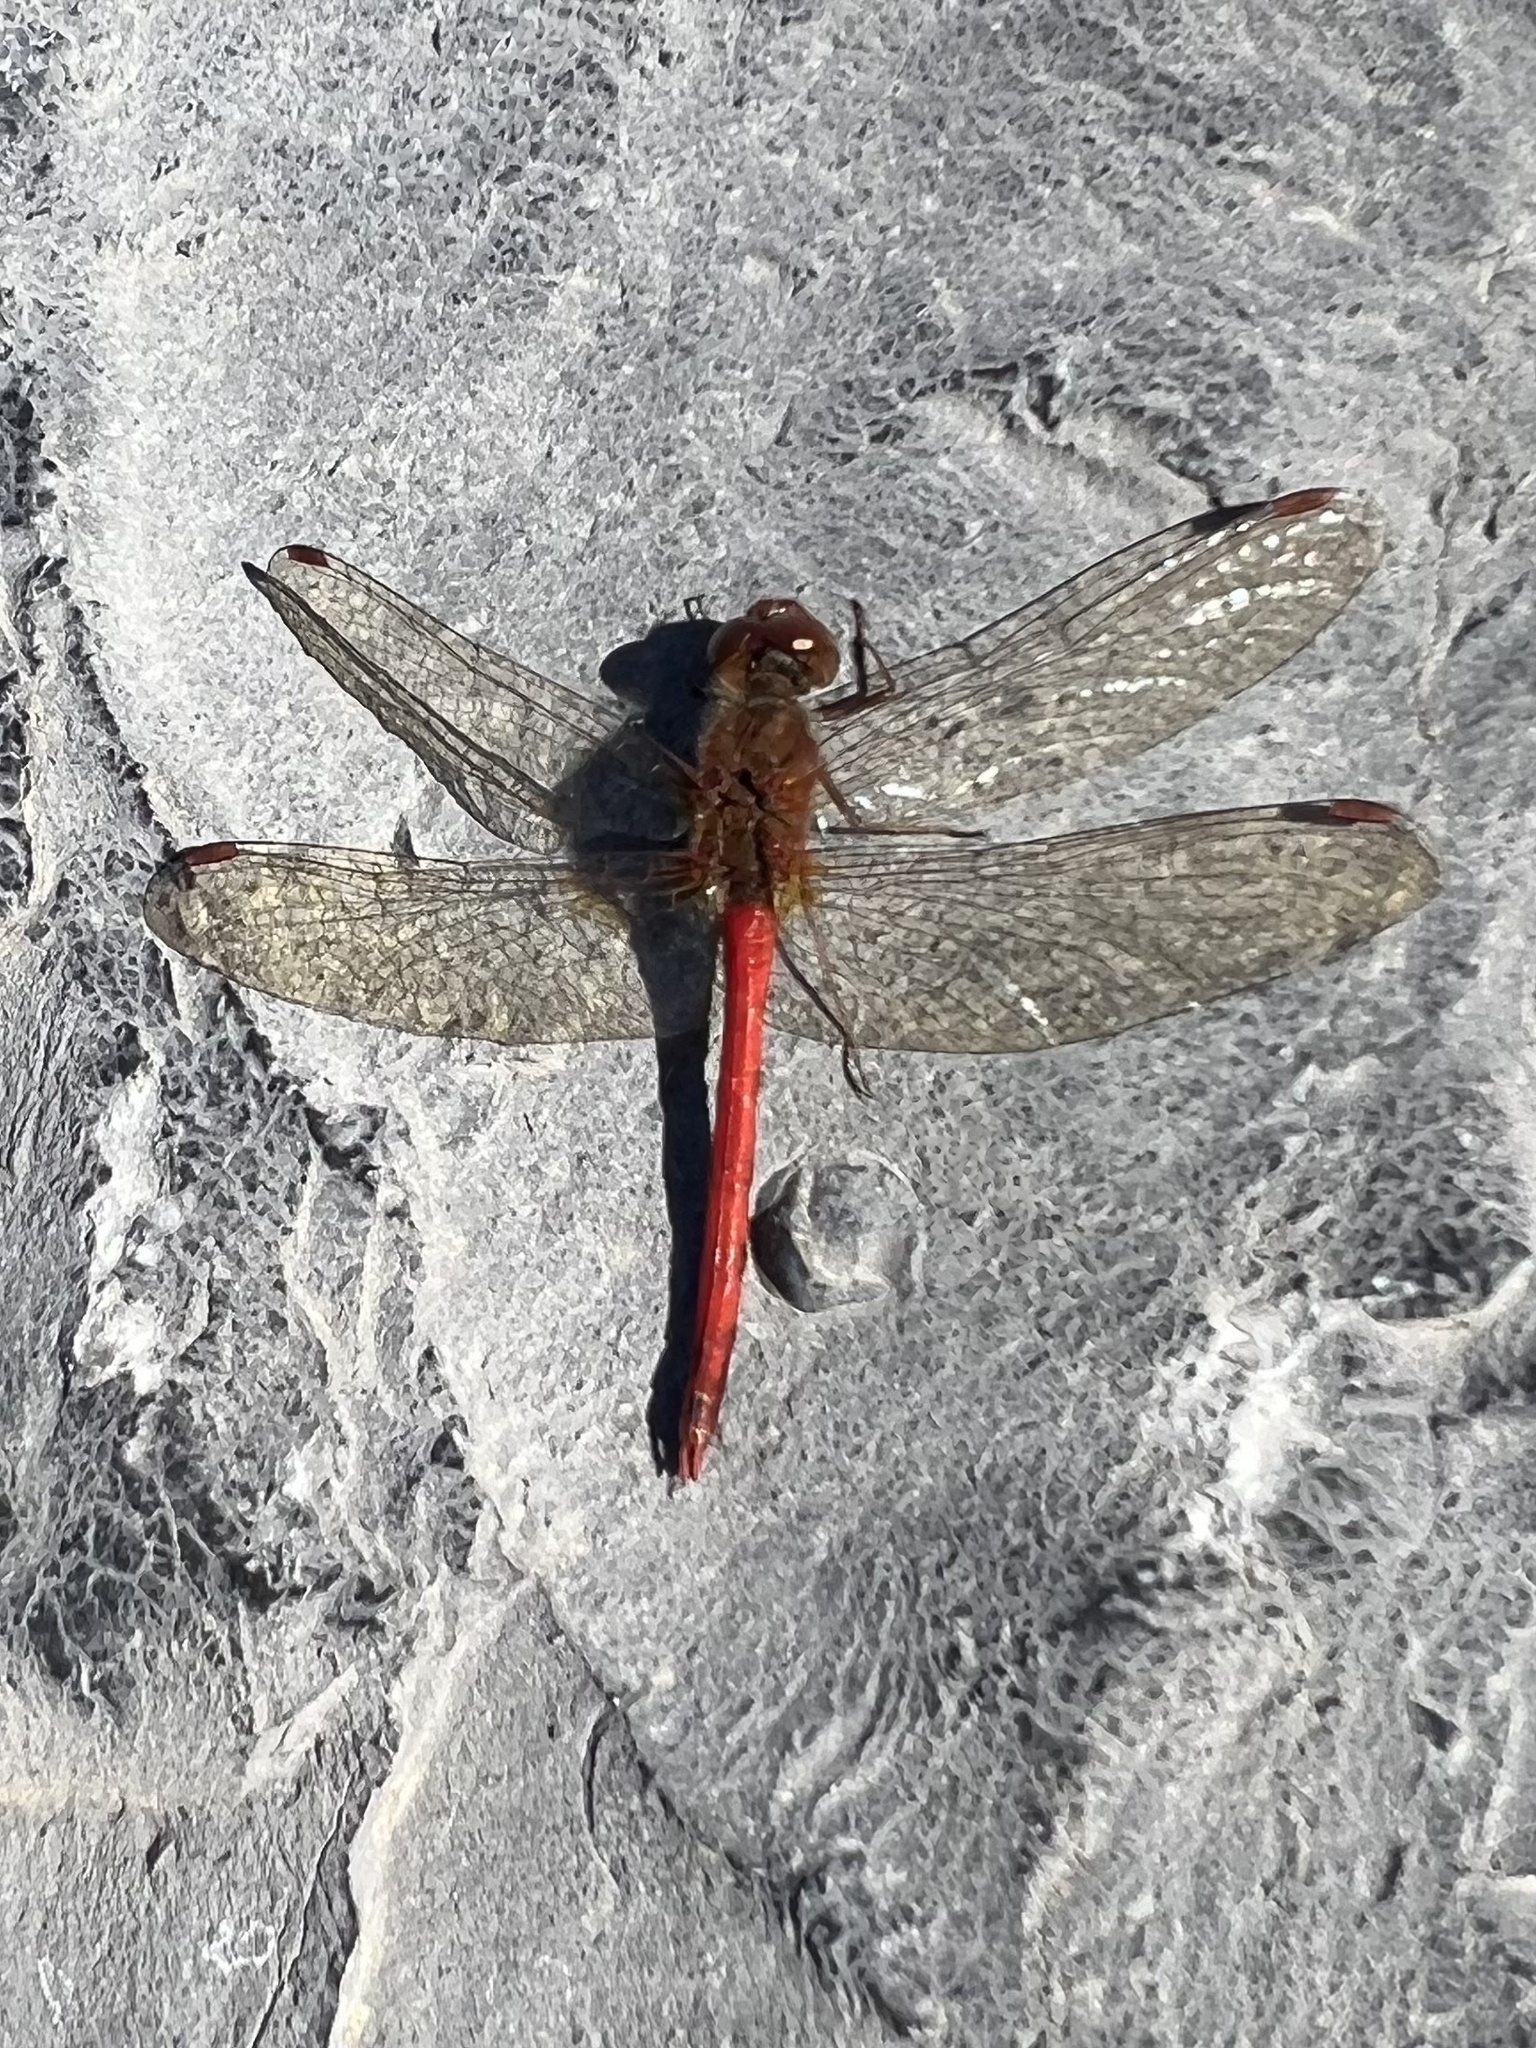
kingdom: Animalia
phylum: Arthropoda
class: Insecta
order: Odonata
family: Libellulidae
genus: Sympetrum
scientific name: Sympetrum vicinum
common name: Autumn meadowhawk
